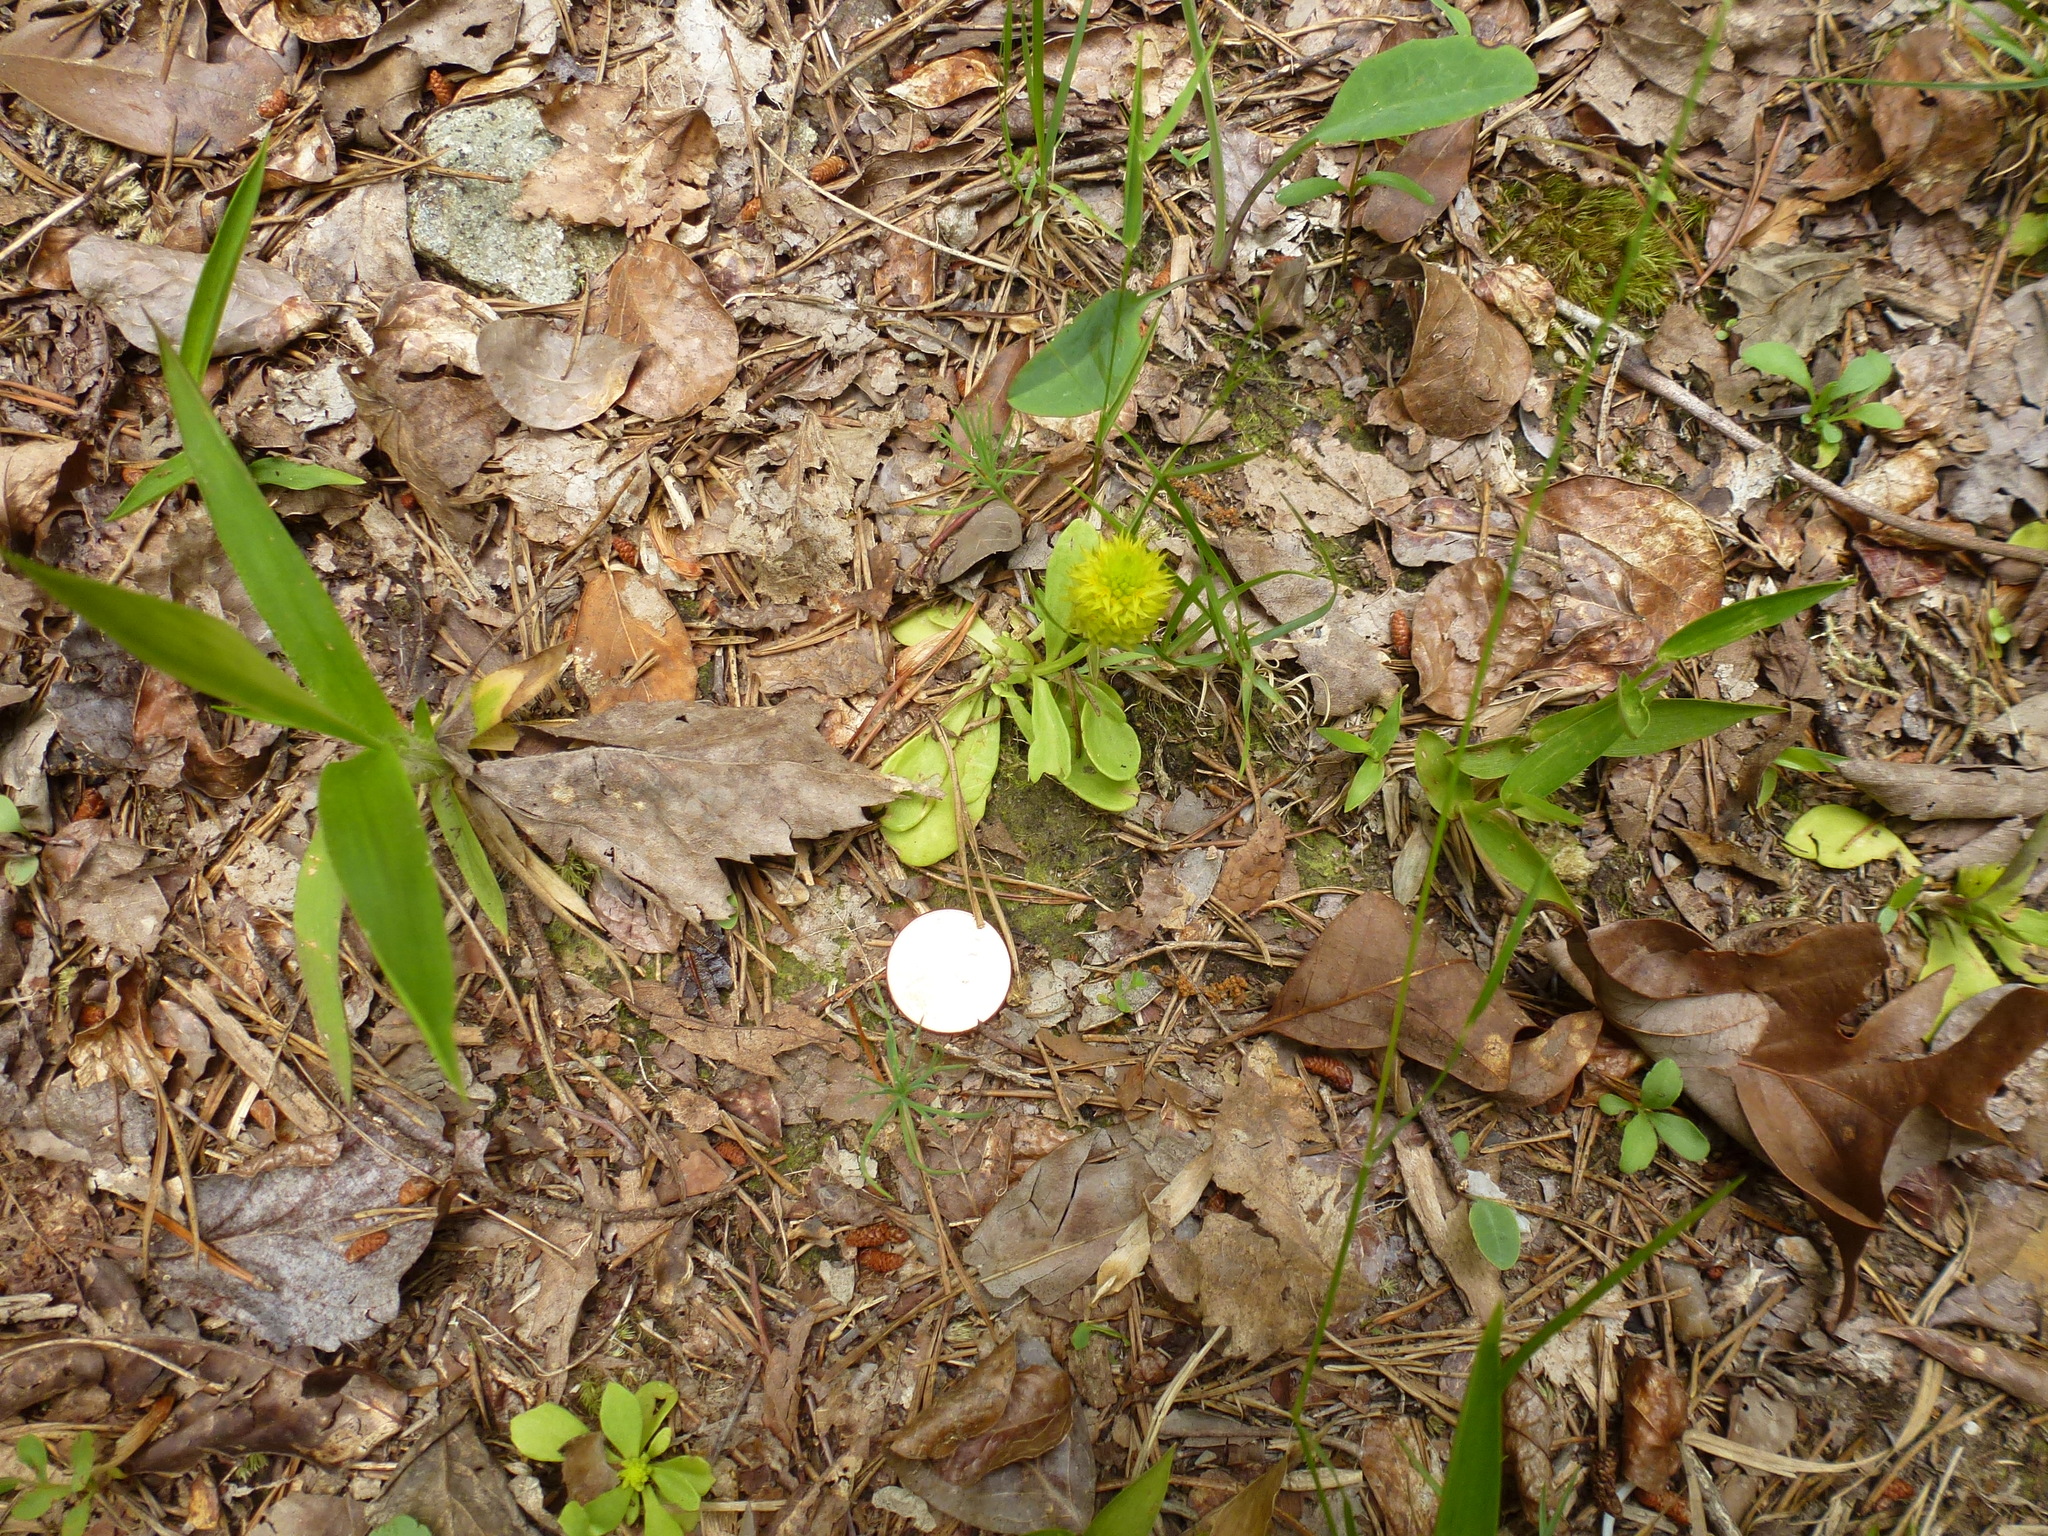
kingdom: Plantae
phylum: Tracheophyta
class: Magnoliopsida
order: Fabales
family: Polygalaceae
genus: Polygala
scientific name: Polygala nana
